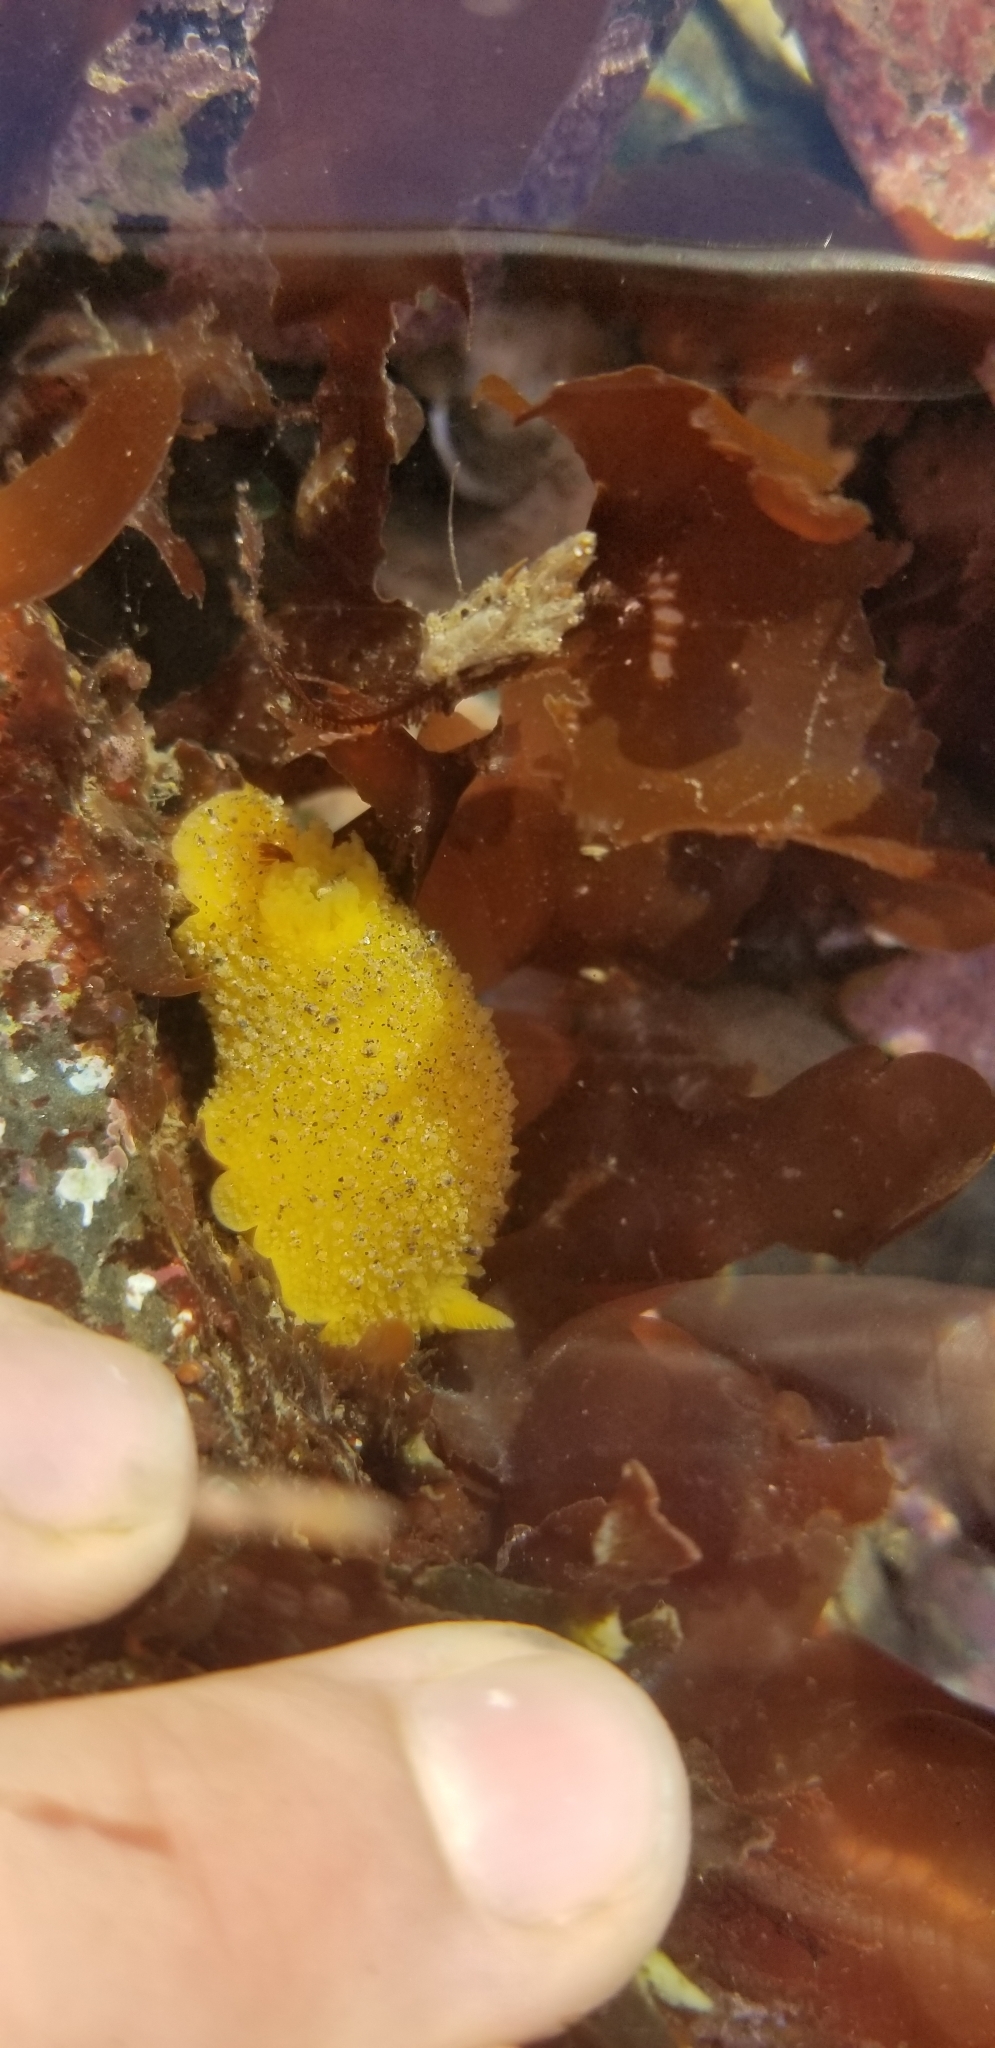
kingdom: Animalia
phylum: Mollusca
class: Gastropoda
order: Nudibranchia
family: Dorididae
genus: Doris
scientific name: Doris montereyensis
